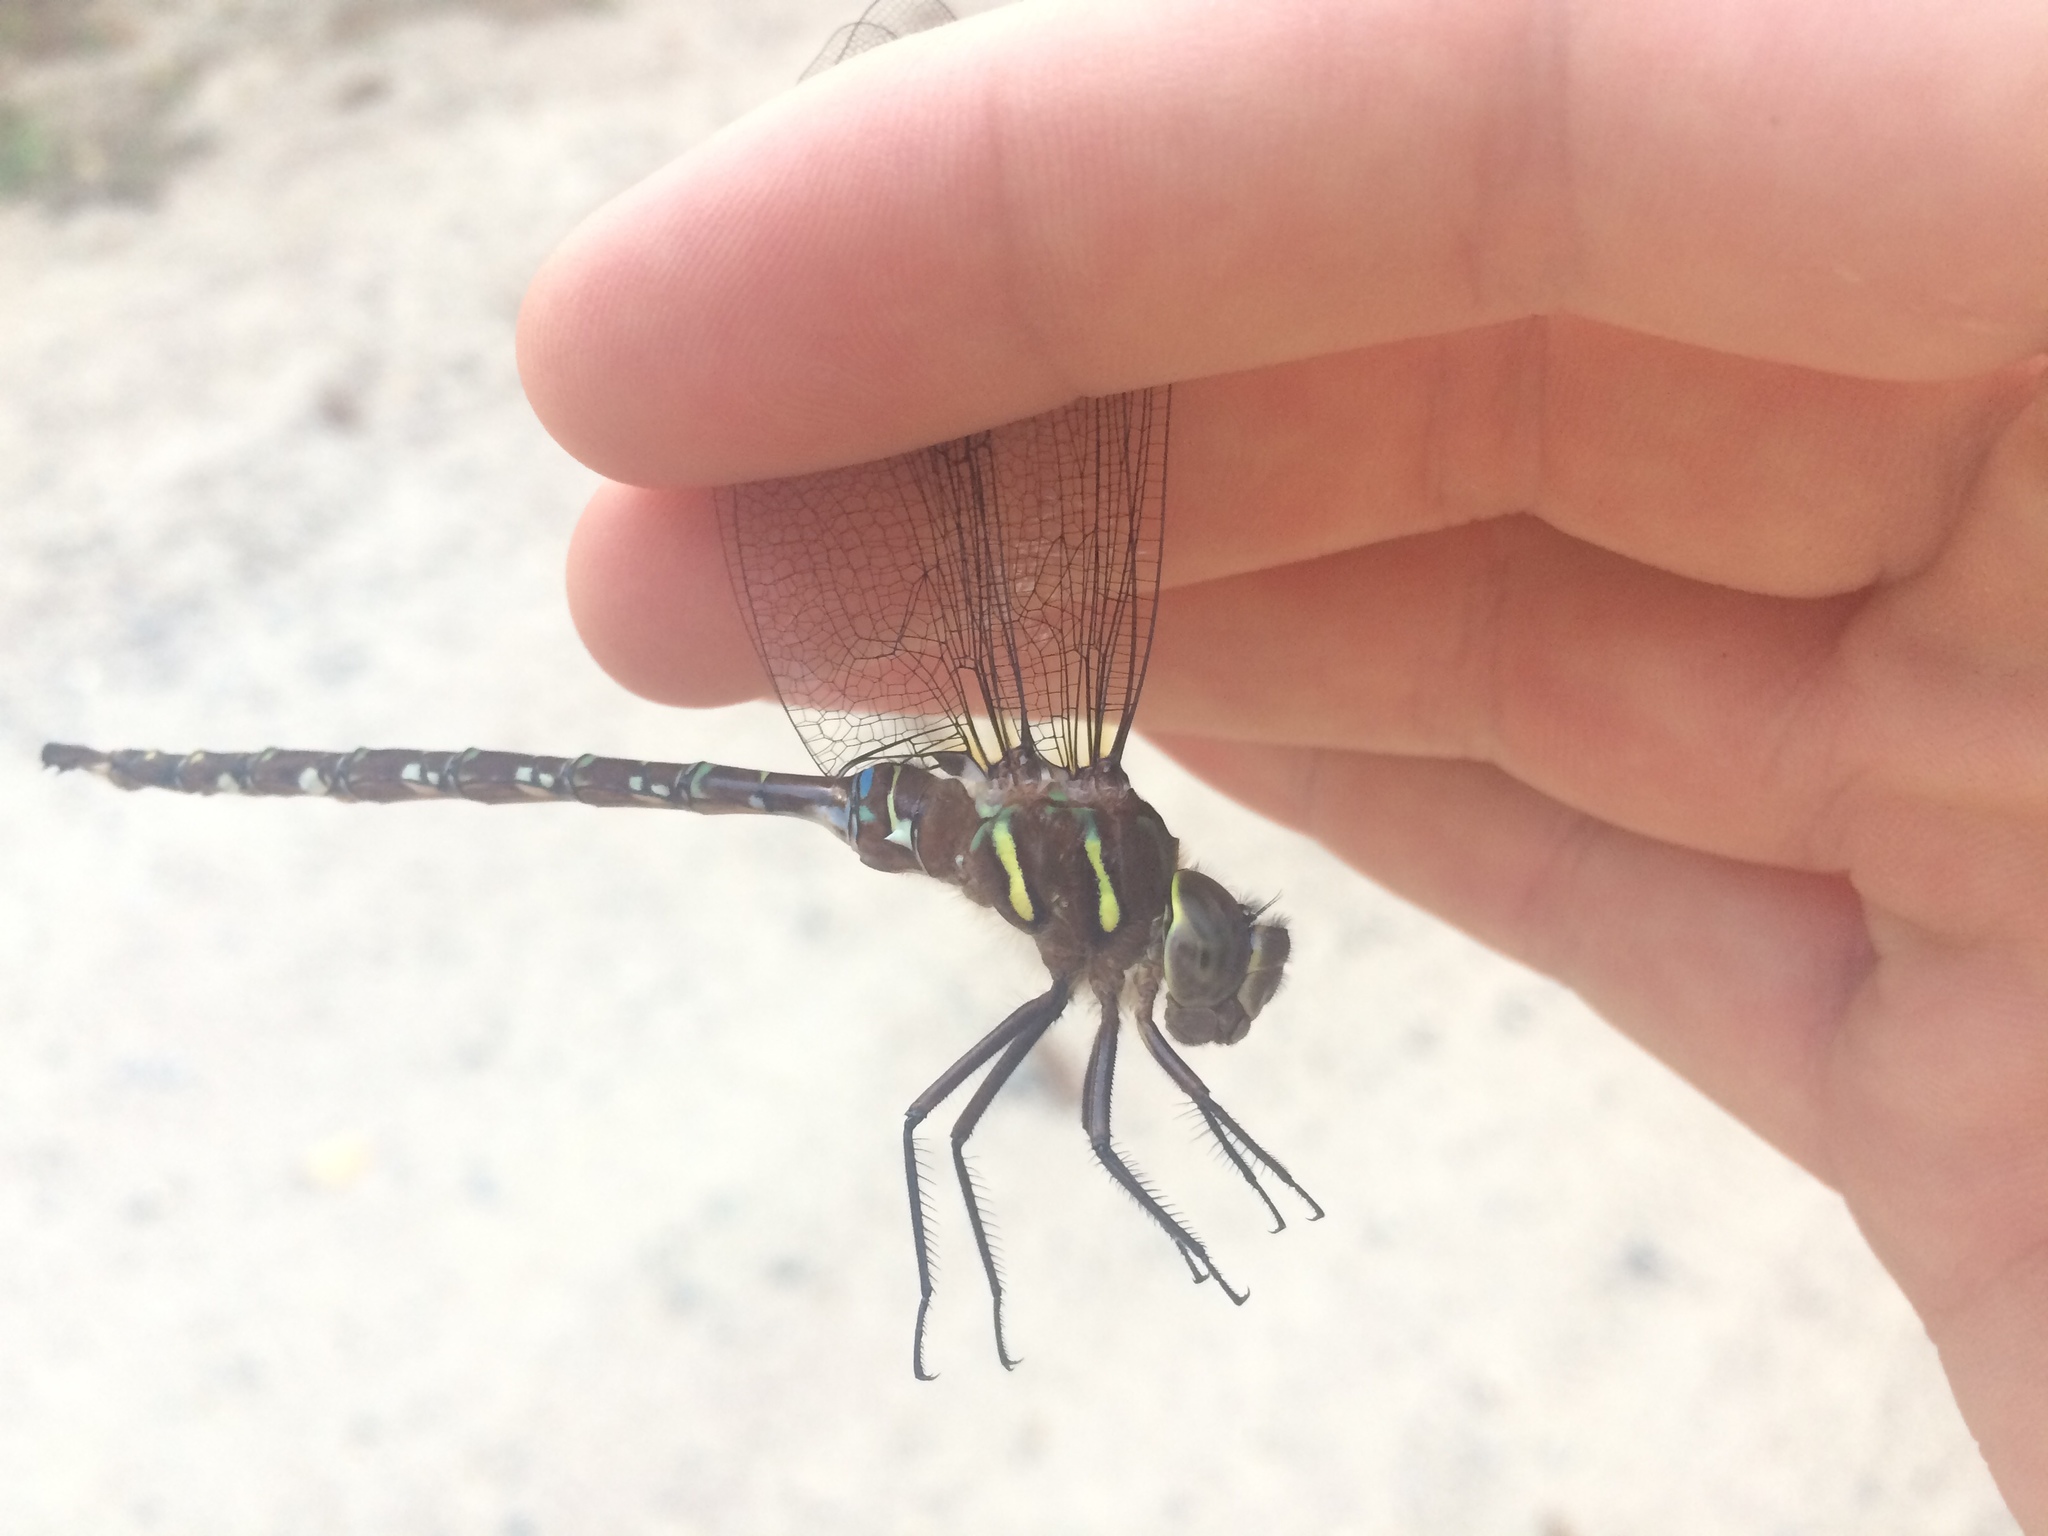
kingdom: Animalia
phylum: Arthropoda
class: Insecta
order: Odonata
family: Aeshnidae
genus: Aeshna
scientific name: Aeshna umbrosa
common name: Shadow darner
